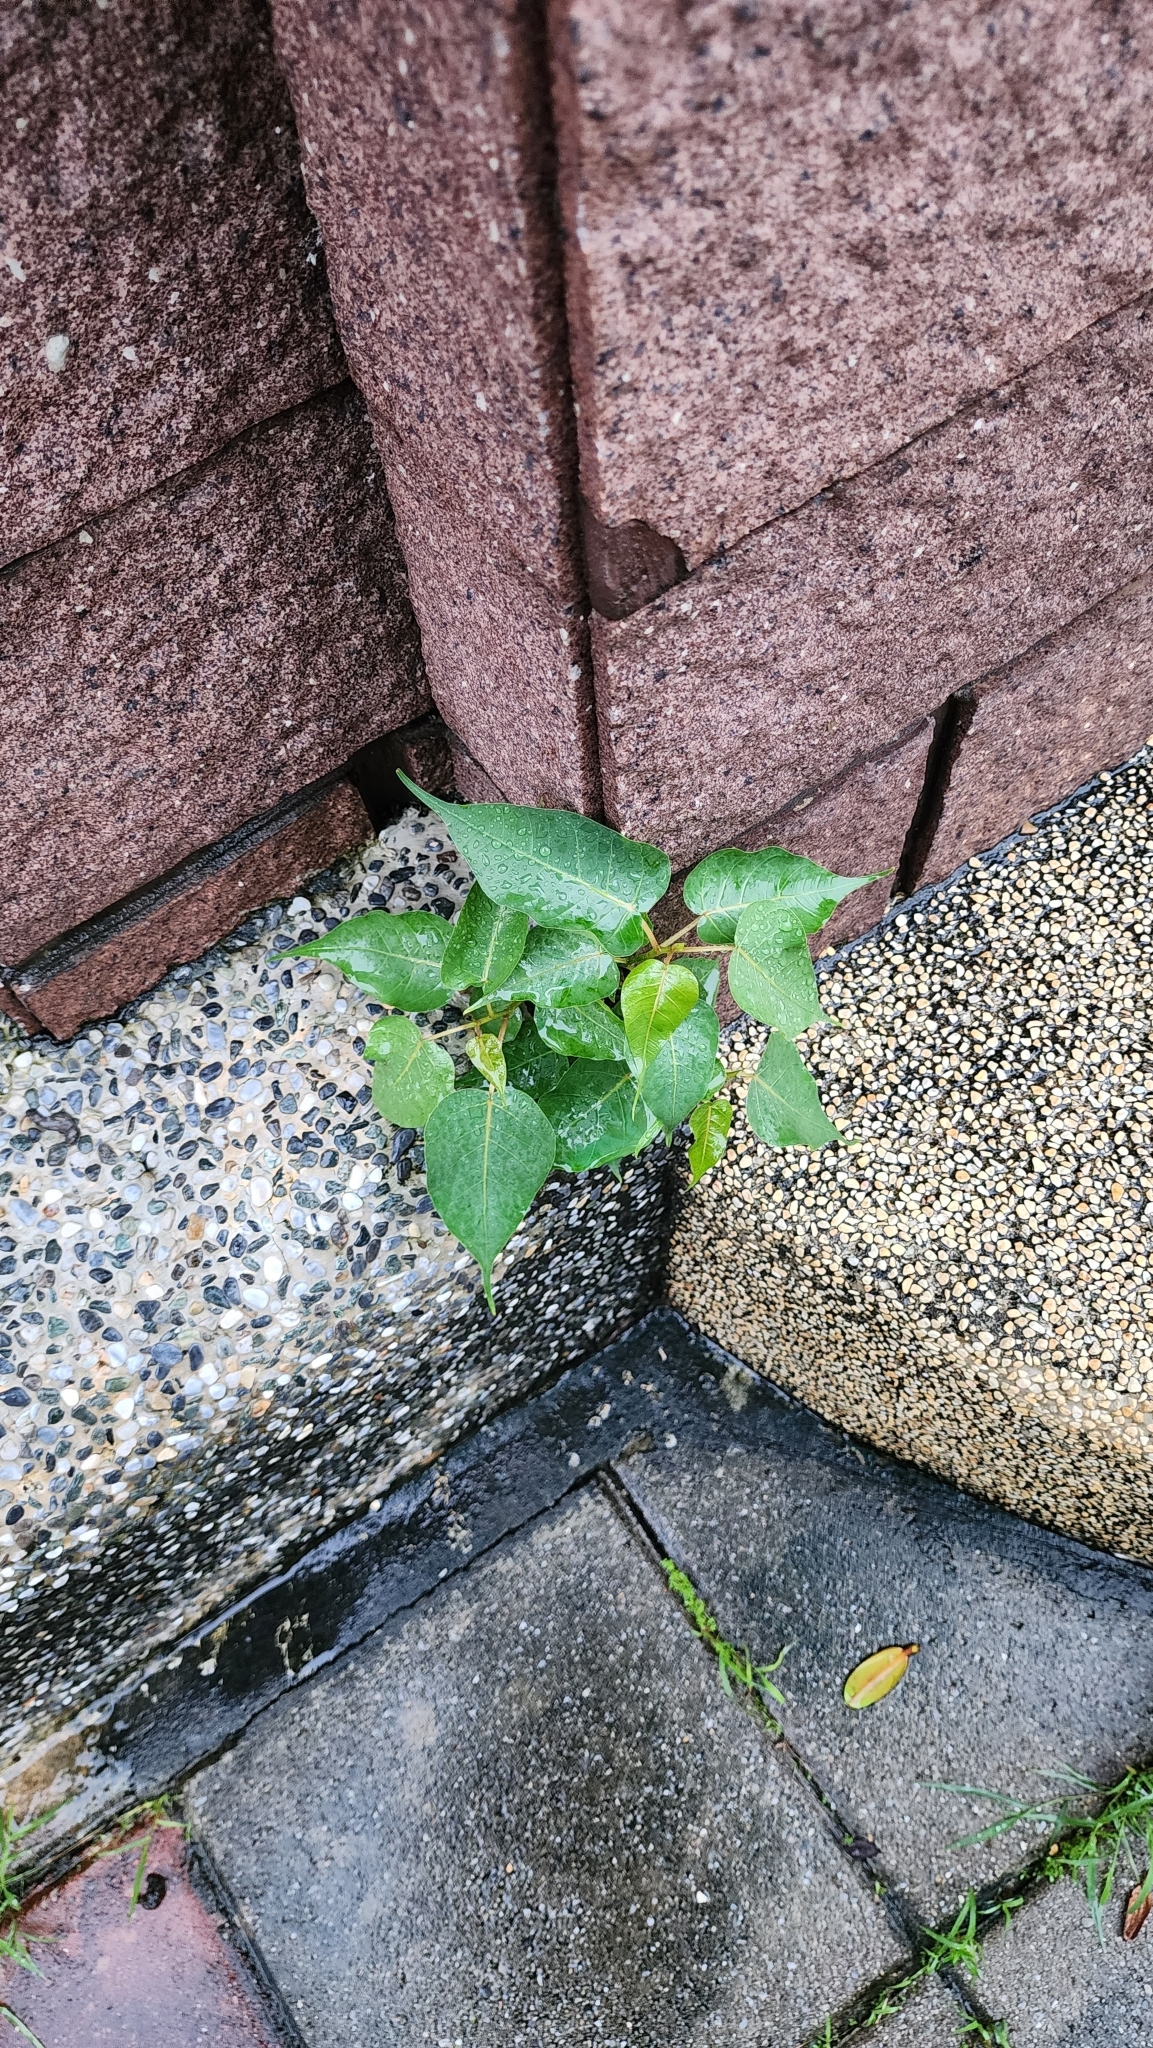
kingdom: Plantae
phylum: Tracheophyta
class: Magnoliopsida
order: Rosales
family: Moraceae
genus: Ficus
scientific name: Ficus religiosa
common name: Bodhi tree
